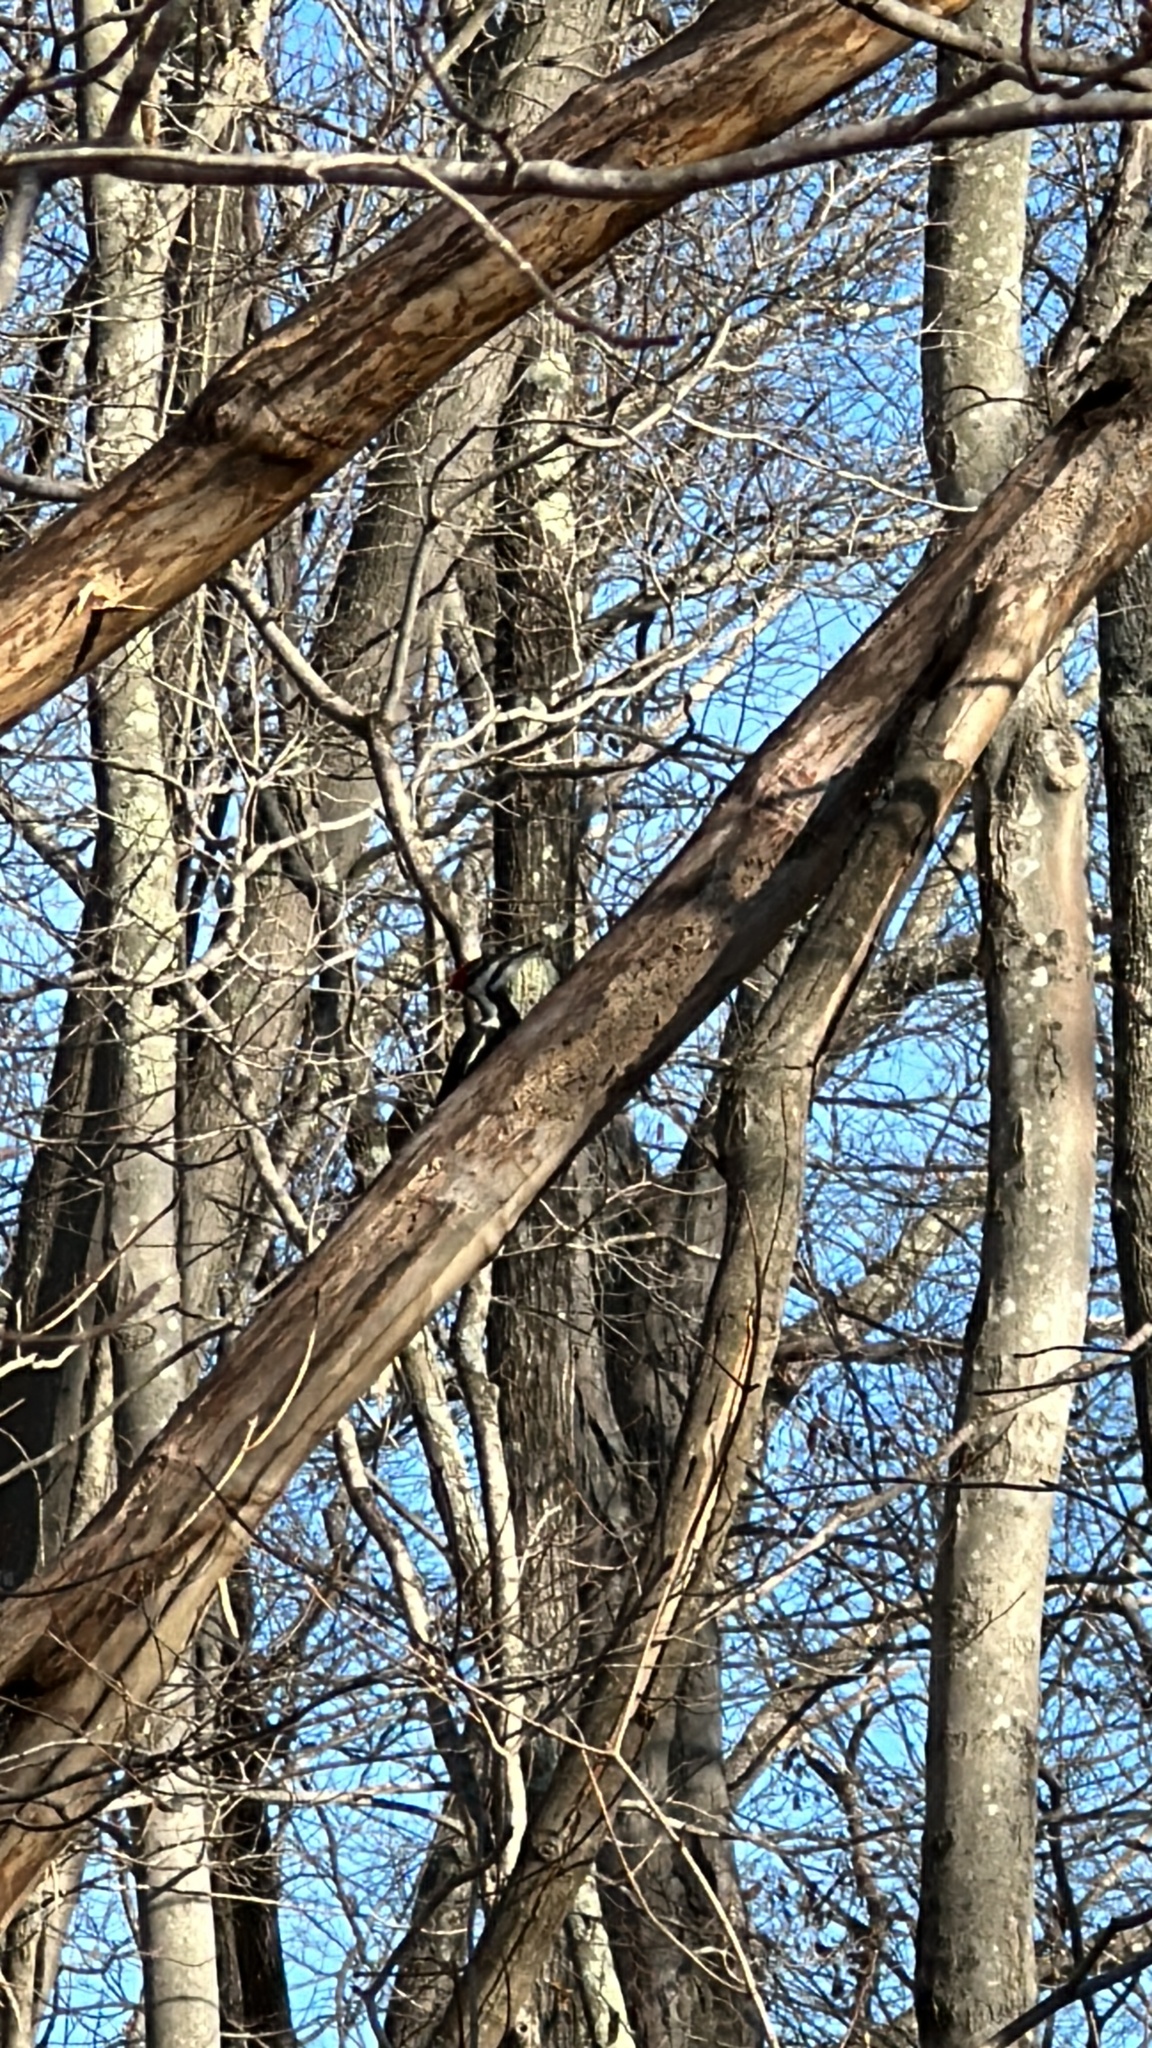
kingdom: Animalia
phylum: Chordata
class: Aves
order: Piciformes
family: Picidae
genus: Dryocopus
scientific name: Dryocopus pileatus
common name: Pileated woodpecker
